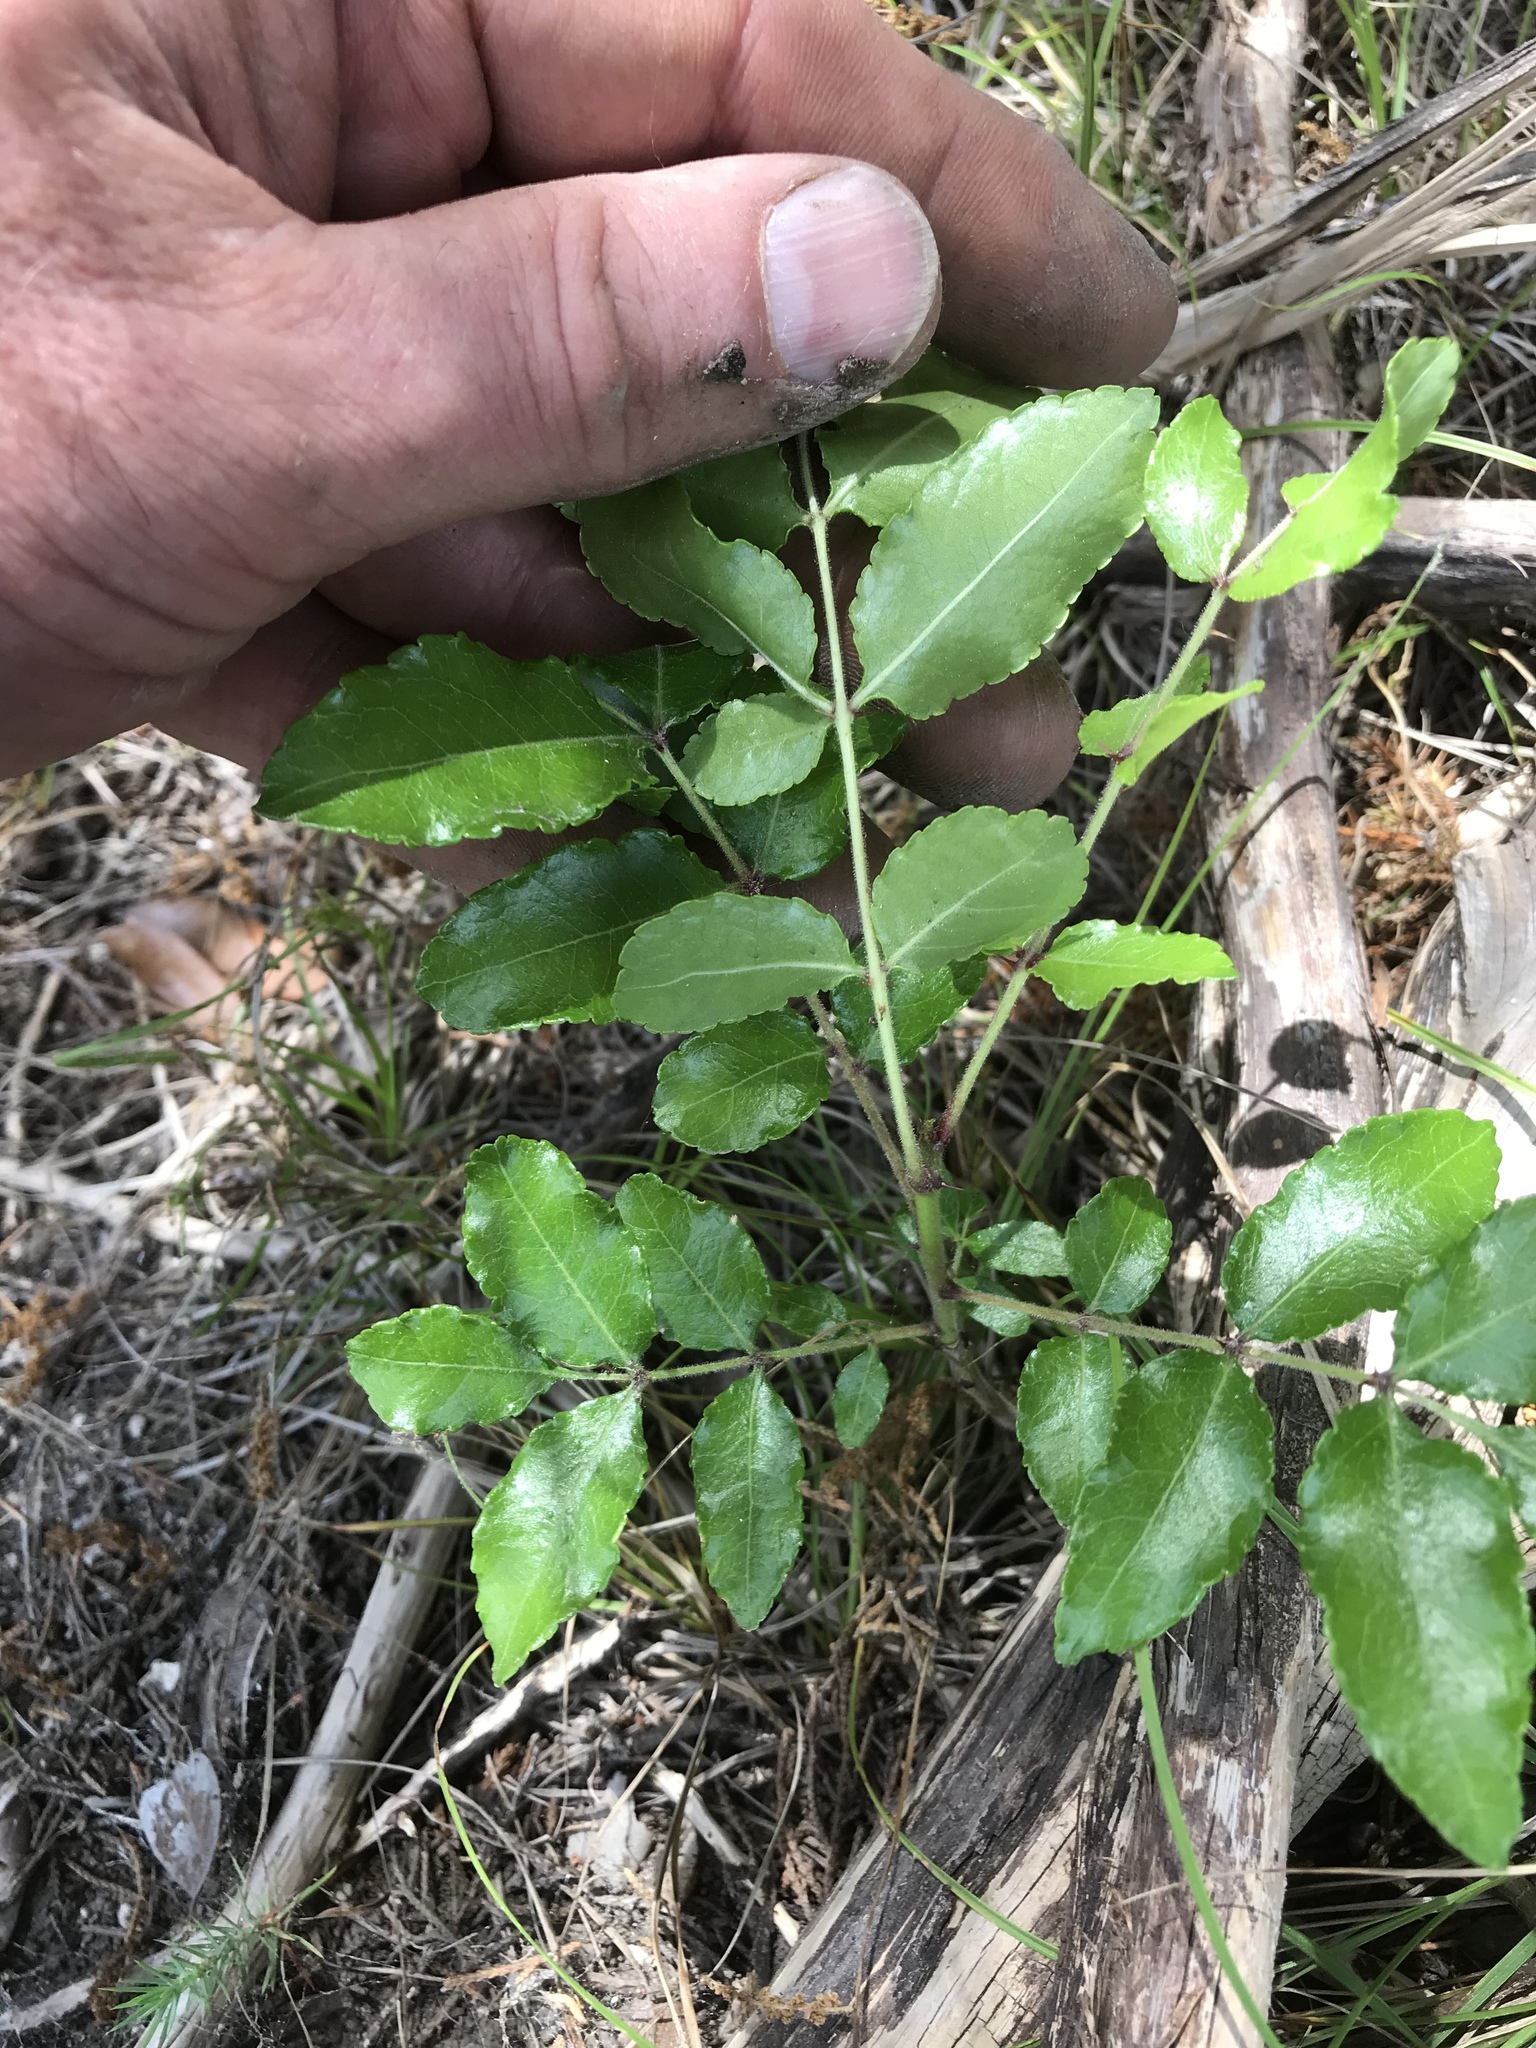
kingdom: Plantae
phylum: Tracheophyta
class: Magnoliopsida
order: Sapindales
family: Rutaceae
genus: Zanthoxylum
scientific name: Zanthoxylum clava-herculis
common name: Hercules'-club
